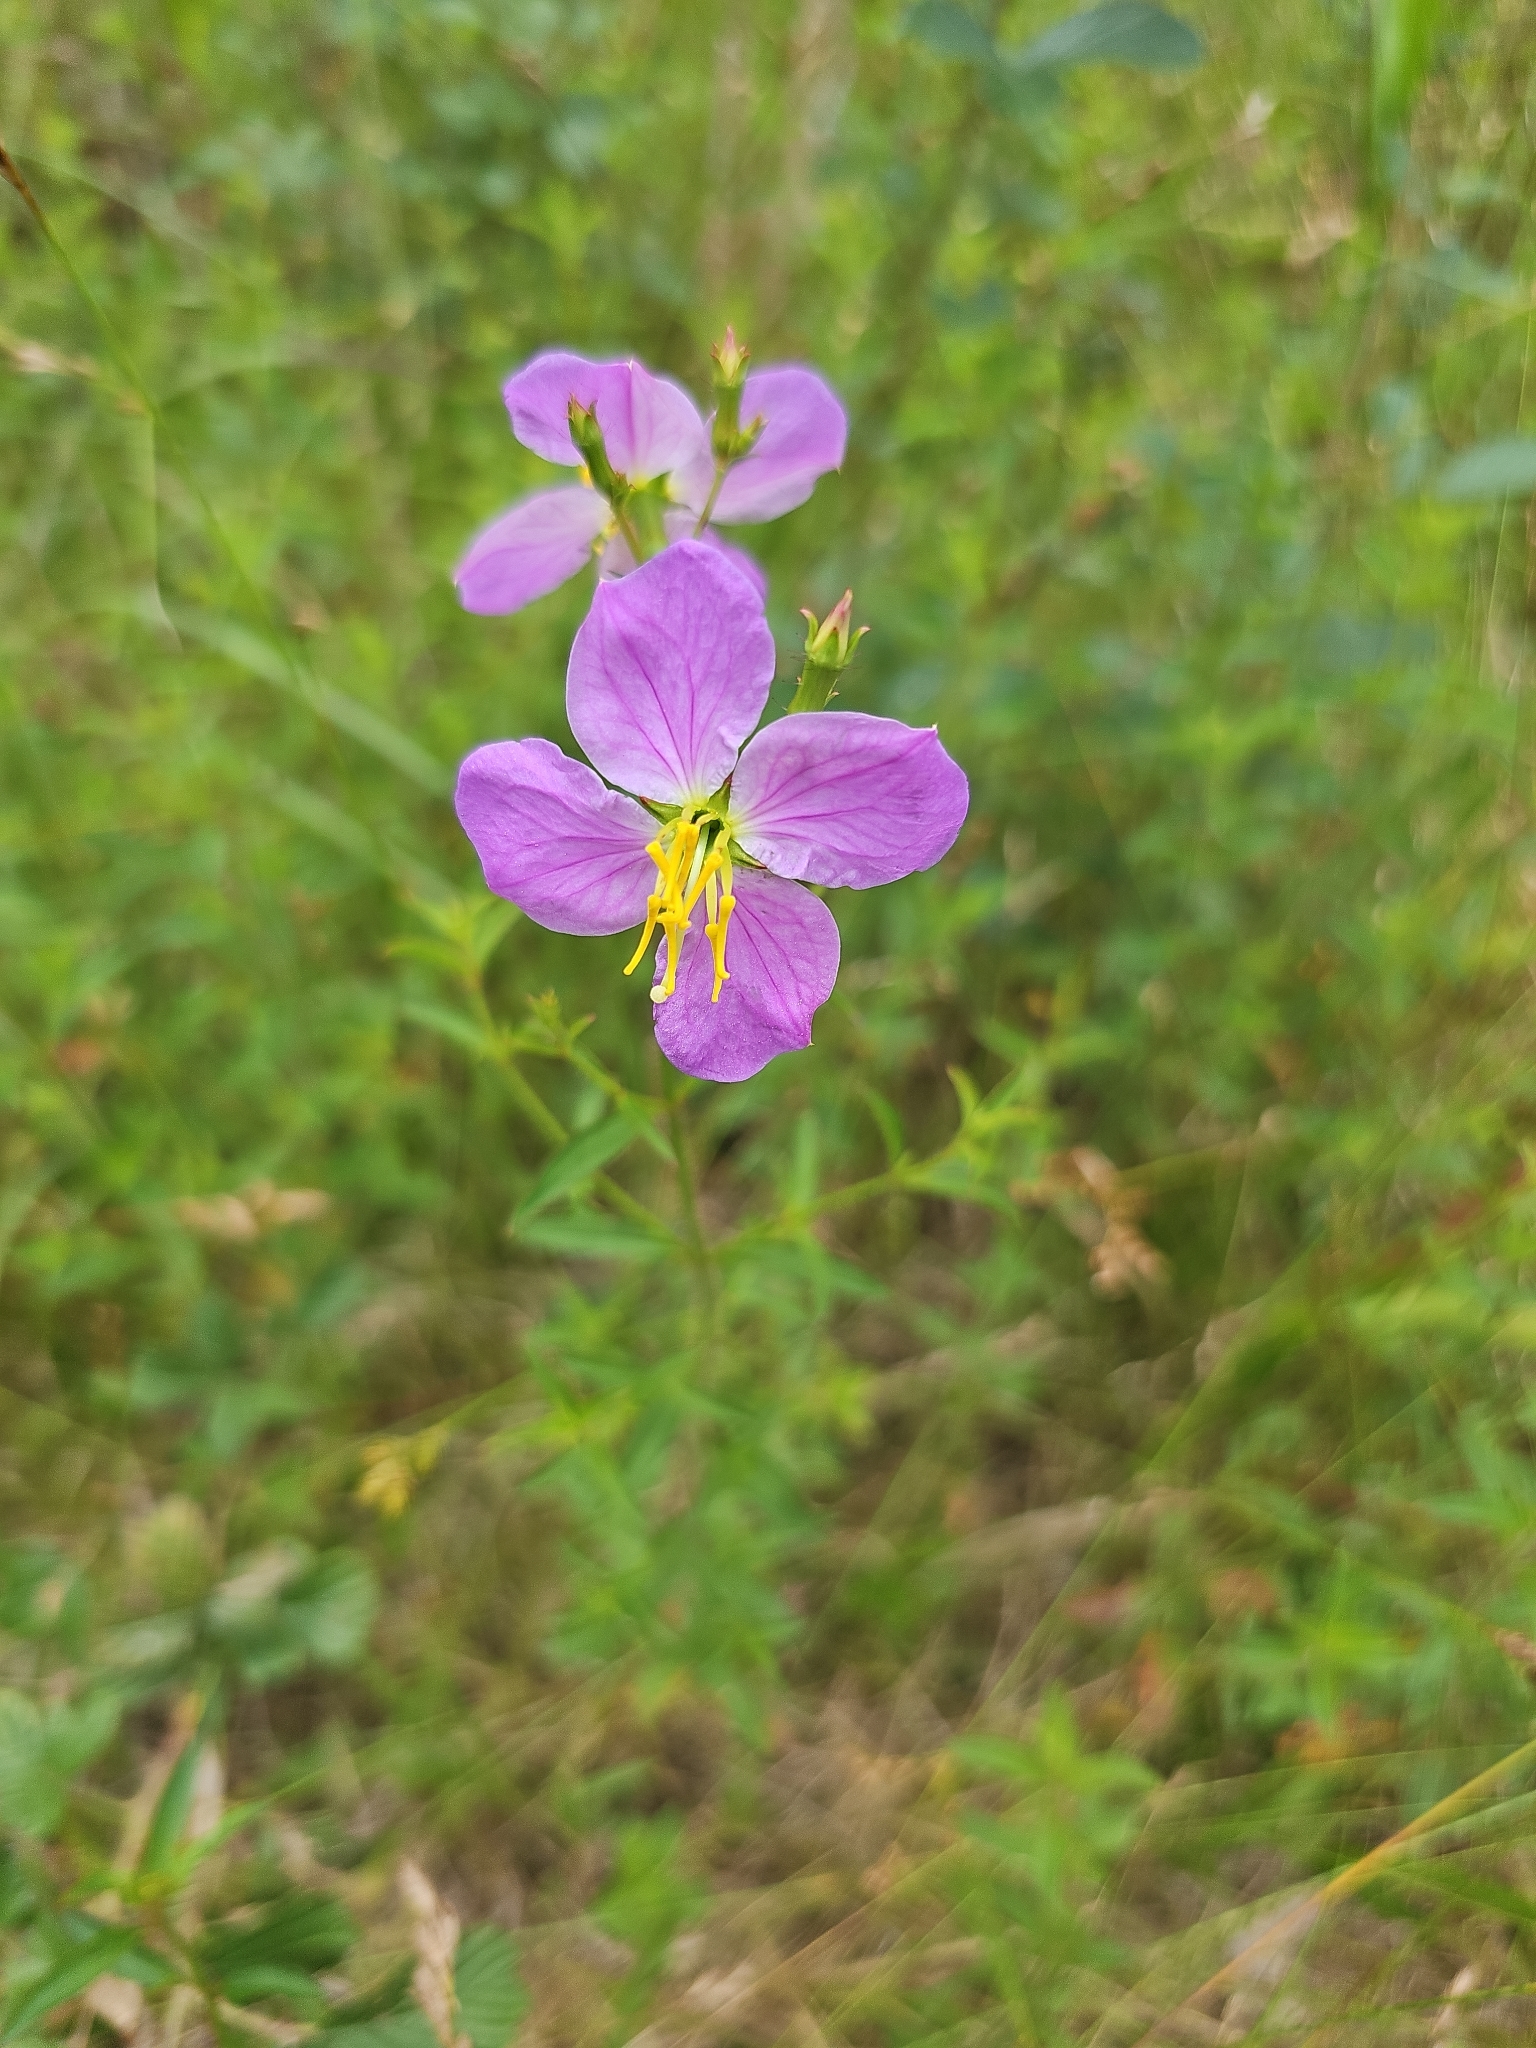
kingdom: Plantae
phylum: Tracheophyta
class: Magnoliopsida
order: Myrtales
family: Melastomataceae
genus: Rhexia
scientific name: Rhexia mariana
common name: Dull meadow-pitcher
